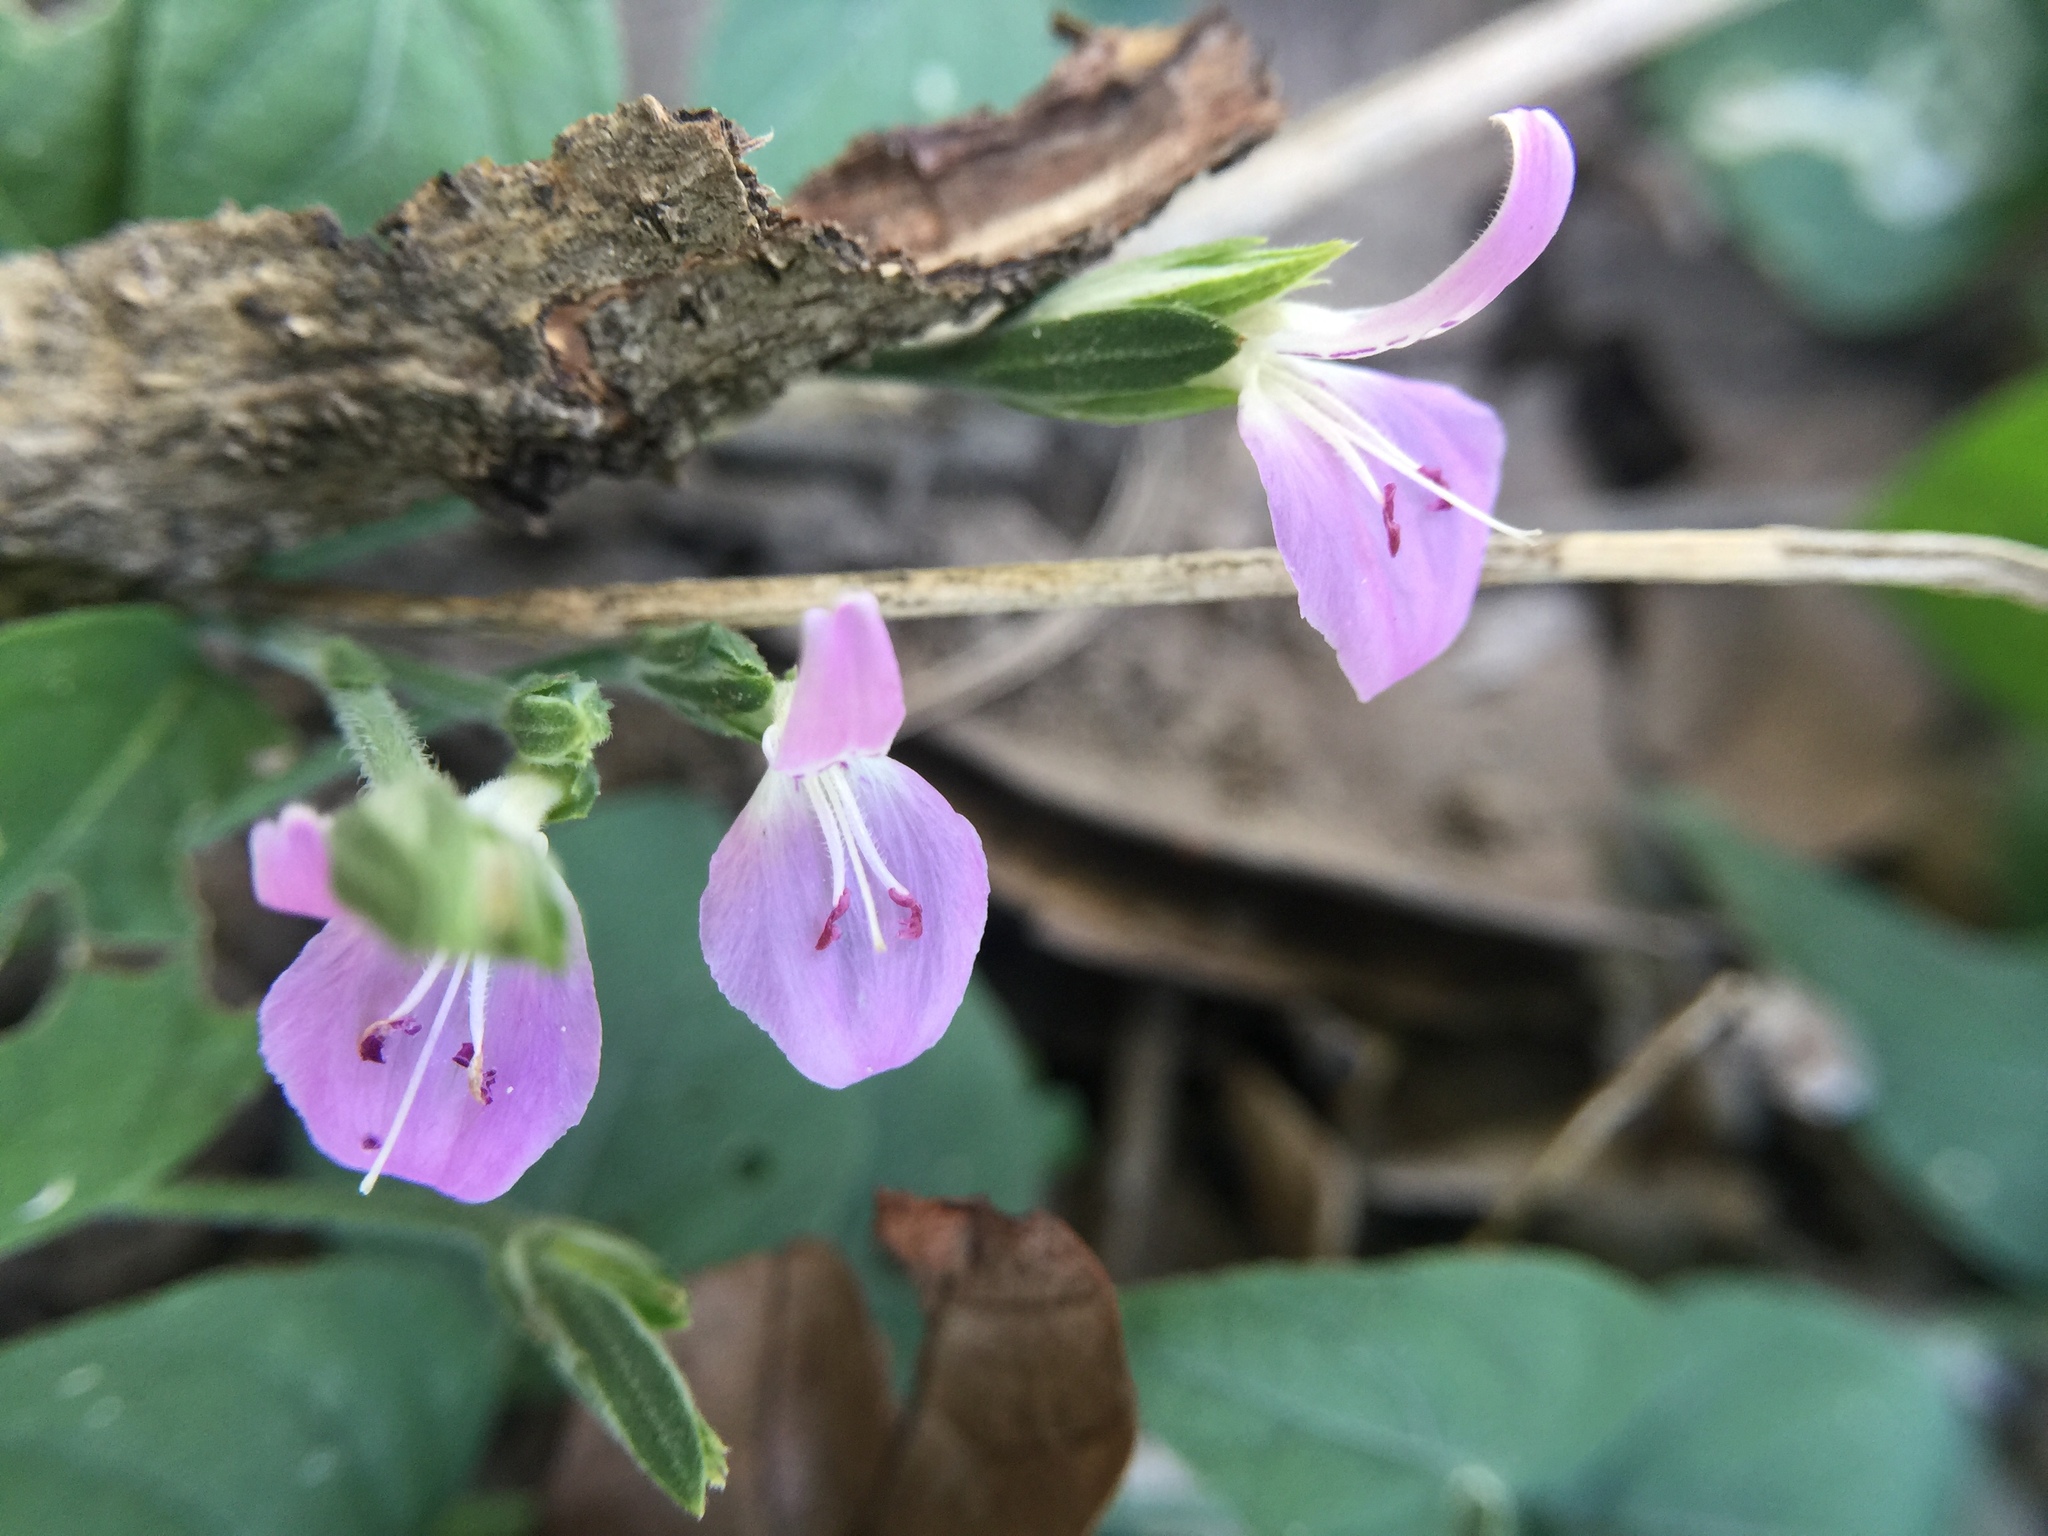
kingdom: Plantae
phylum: Tracheophyta
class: Magnoliopsida
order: Lamiales
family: Acanthaceae
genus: Dicliptera
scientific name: Dicliptera brevispicata
